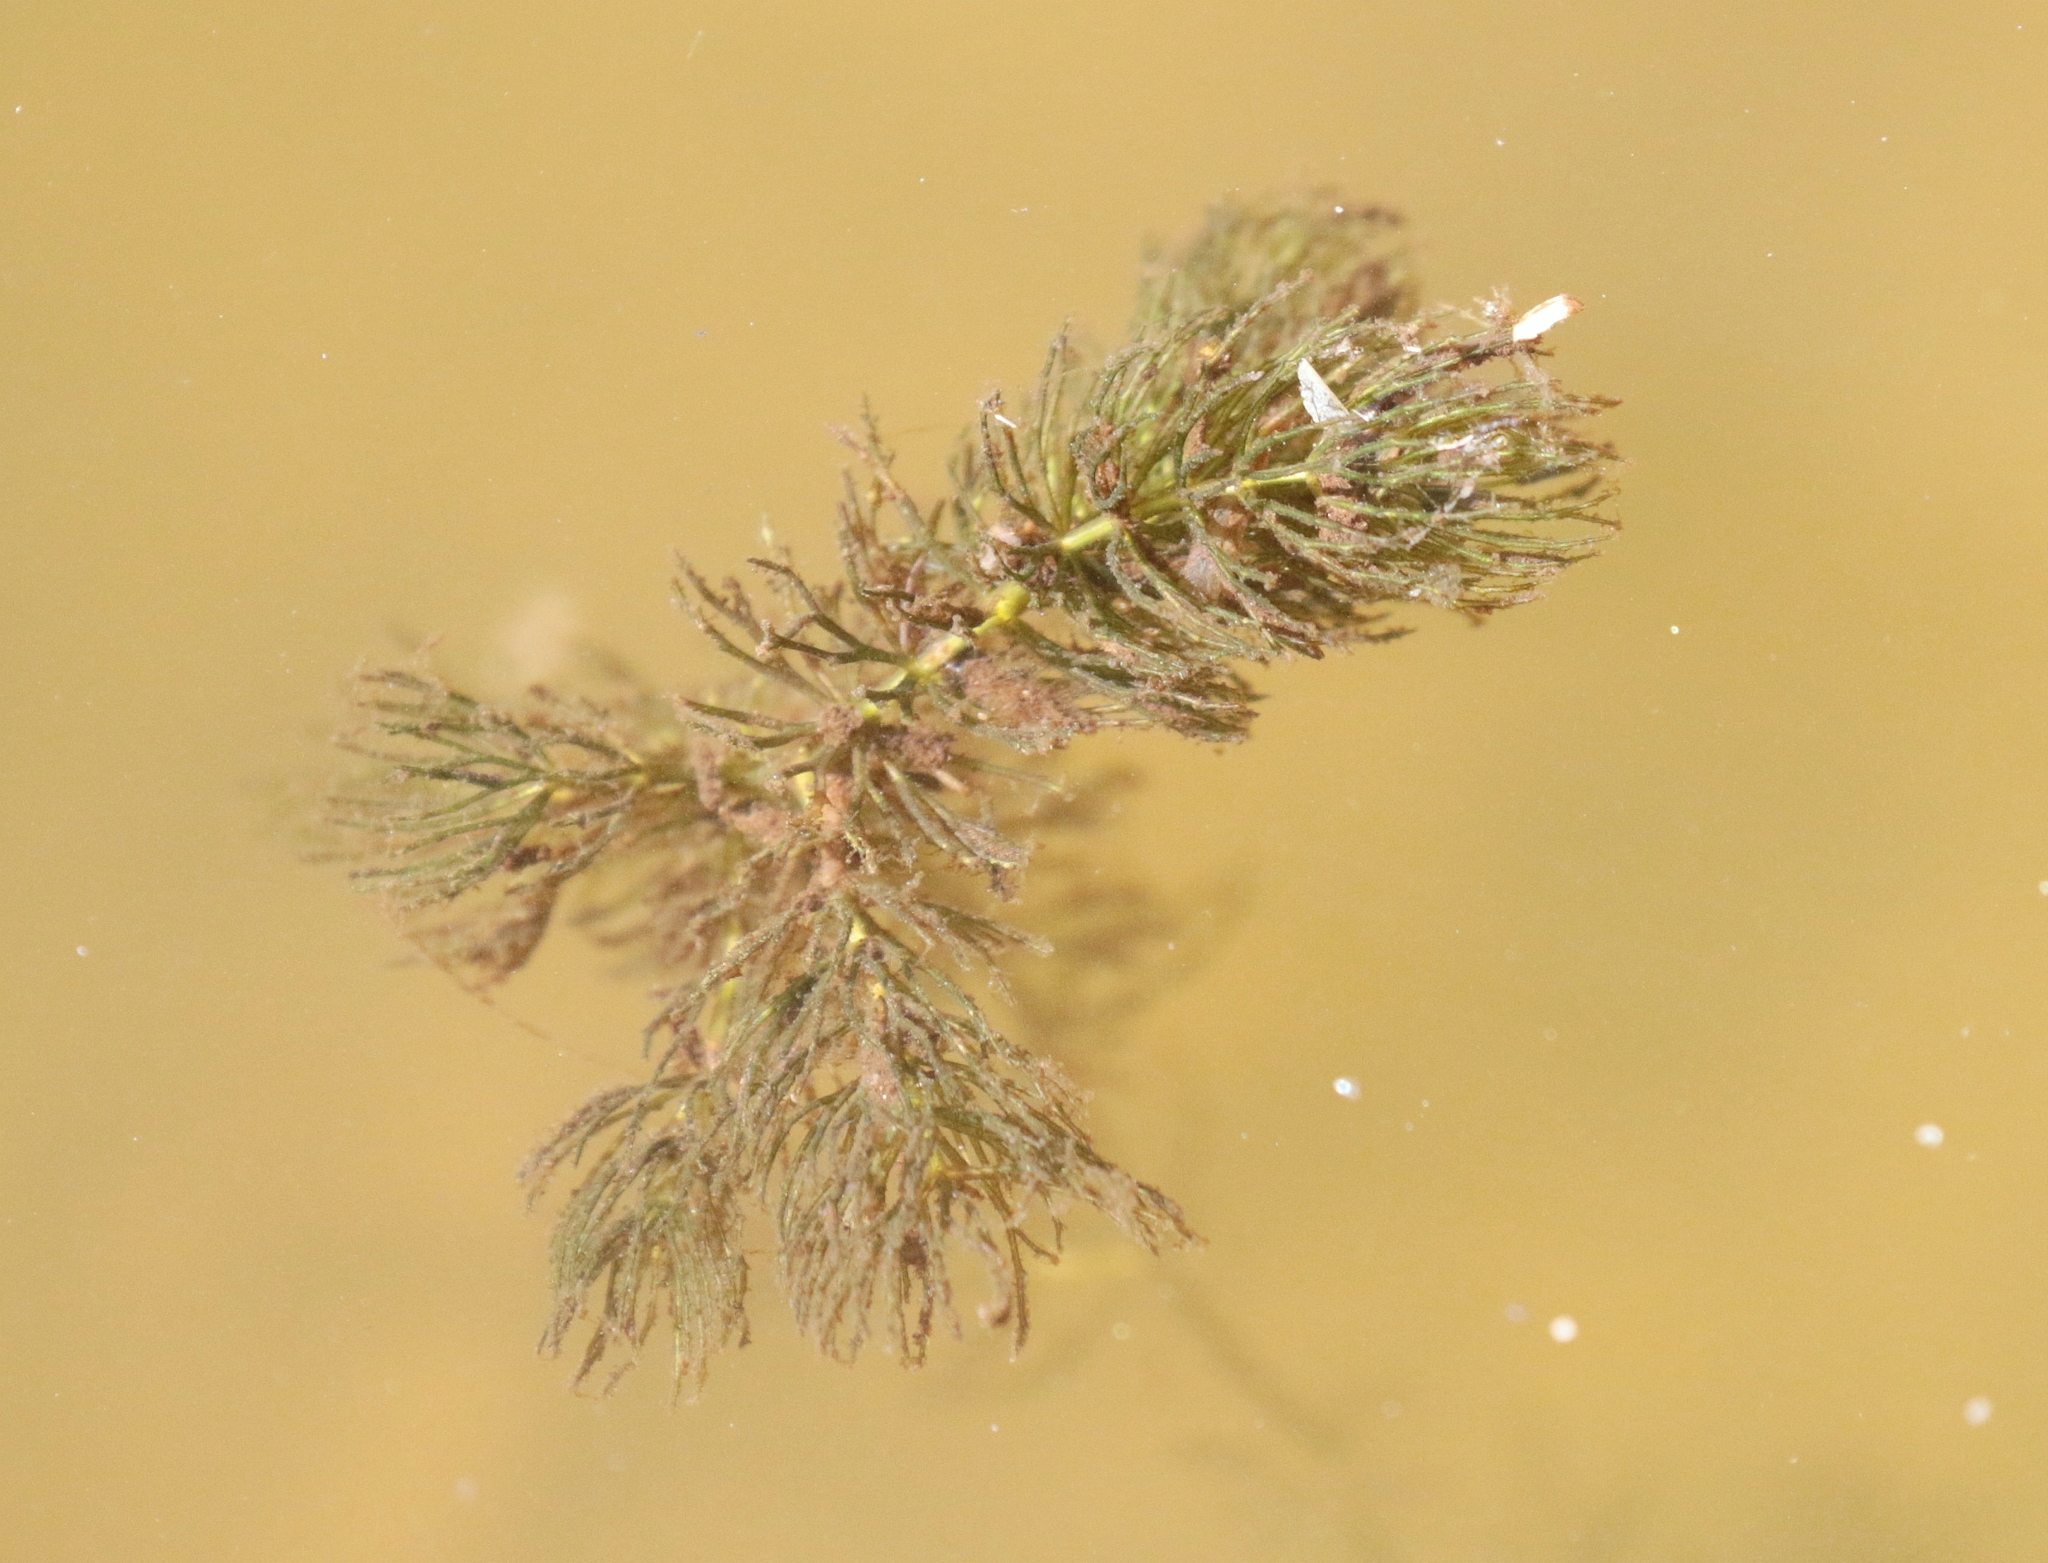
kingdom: Plantae
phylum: Tracheophyta
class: Magnoliopsida
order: Ceratophyllales
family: Ceratophyllaceae
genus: Ceratophyllum
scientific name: Ceratophyllum demersum
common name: Rigid hornwort
